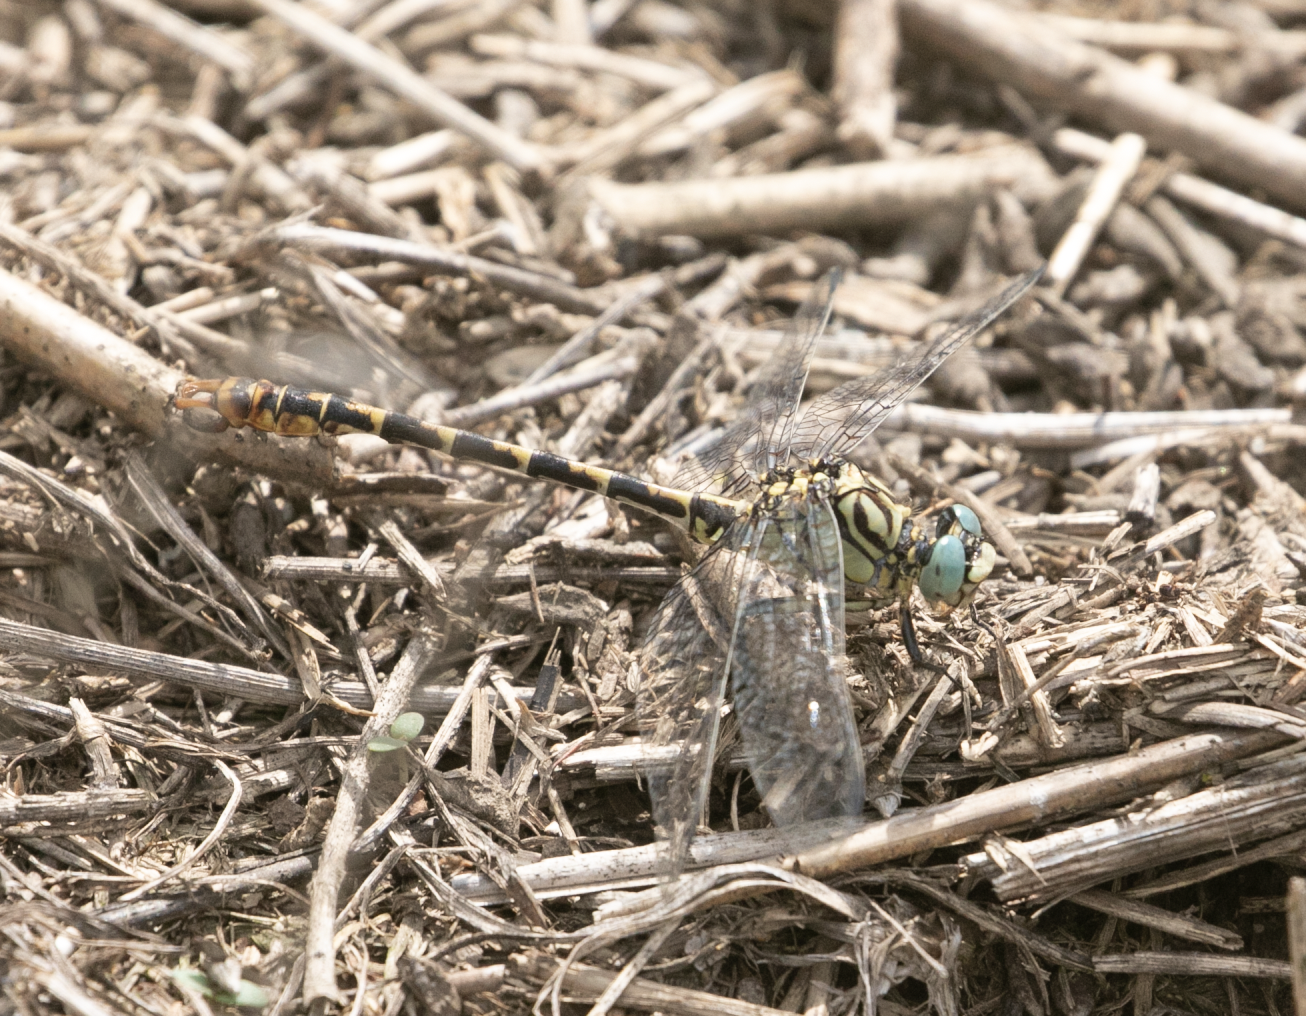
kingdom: Animalia
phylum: Arthropoda
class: Insecta
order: Odonata
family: Gomphidae
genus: Onychogomphus
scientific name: Onychogomphus forcipatus
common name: Small pincertail
